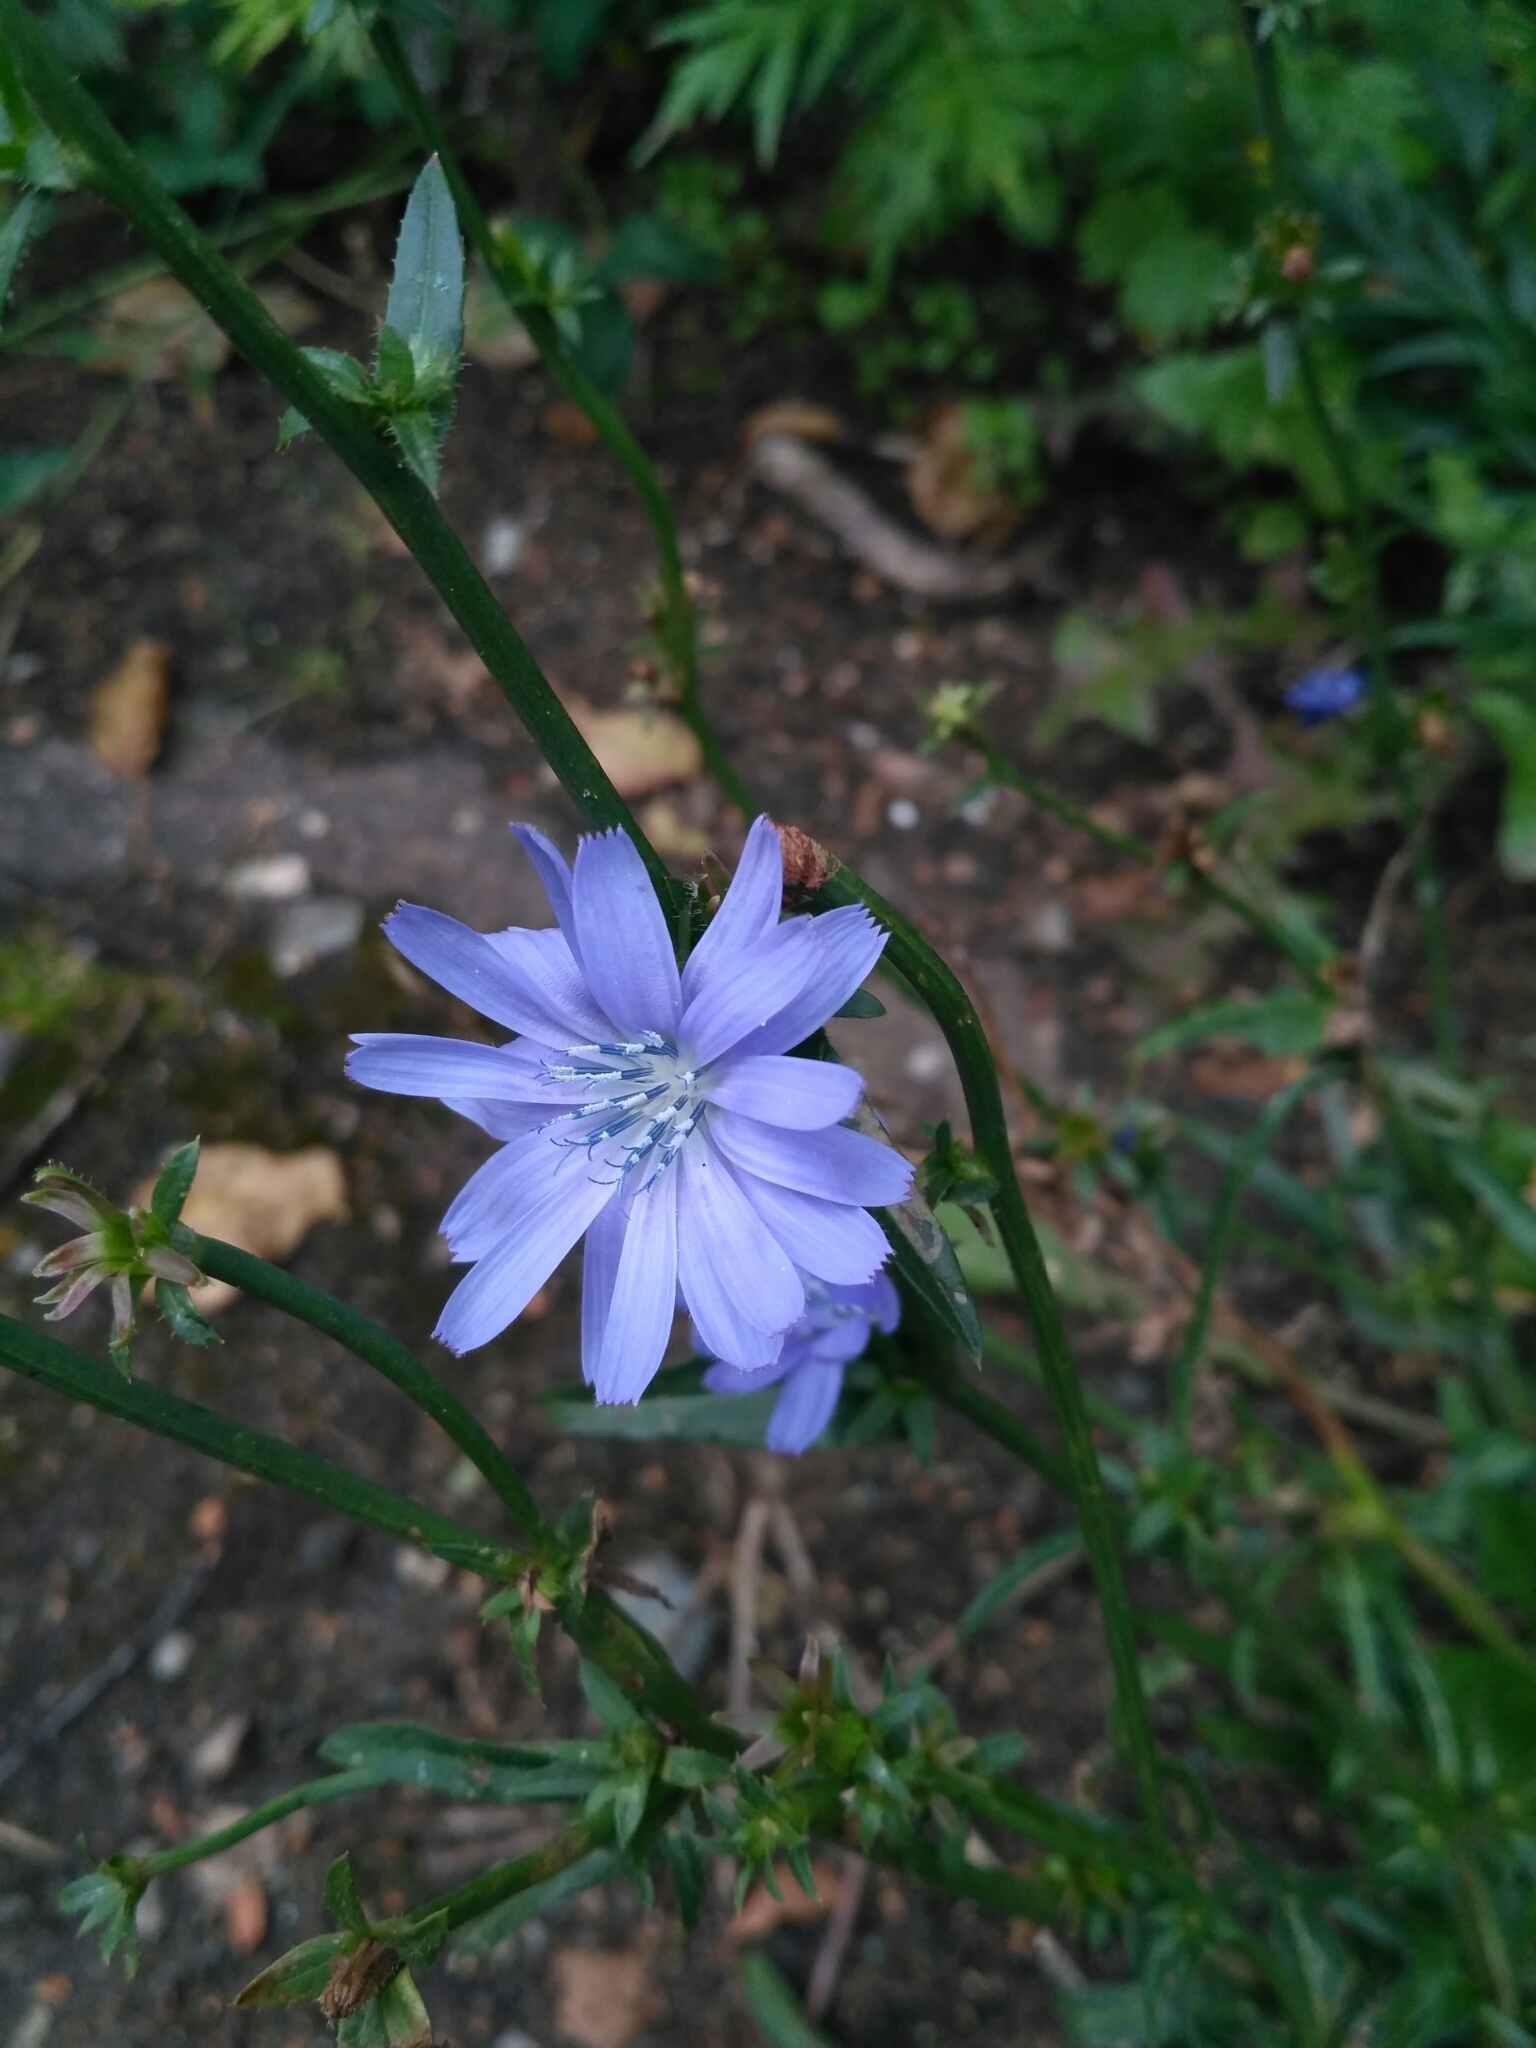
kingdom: Plantae
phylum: Tracheophyta
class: Magnoliopsida
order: Asterales
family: Asteraceae
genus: Cichorium
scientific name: Cichorium intybus
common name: Chicory
